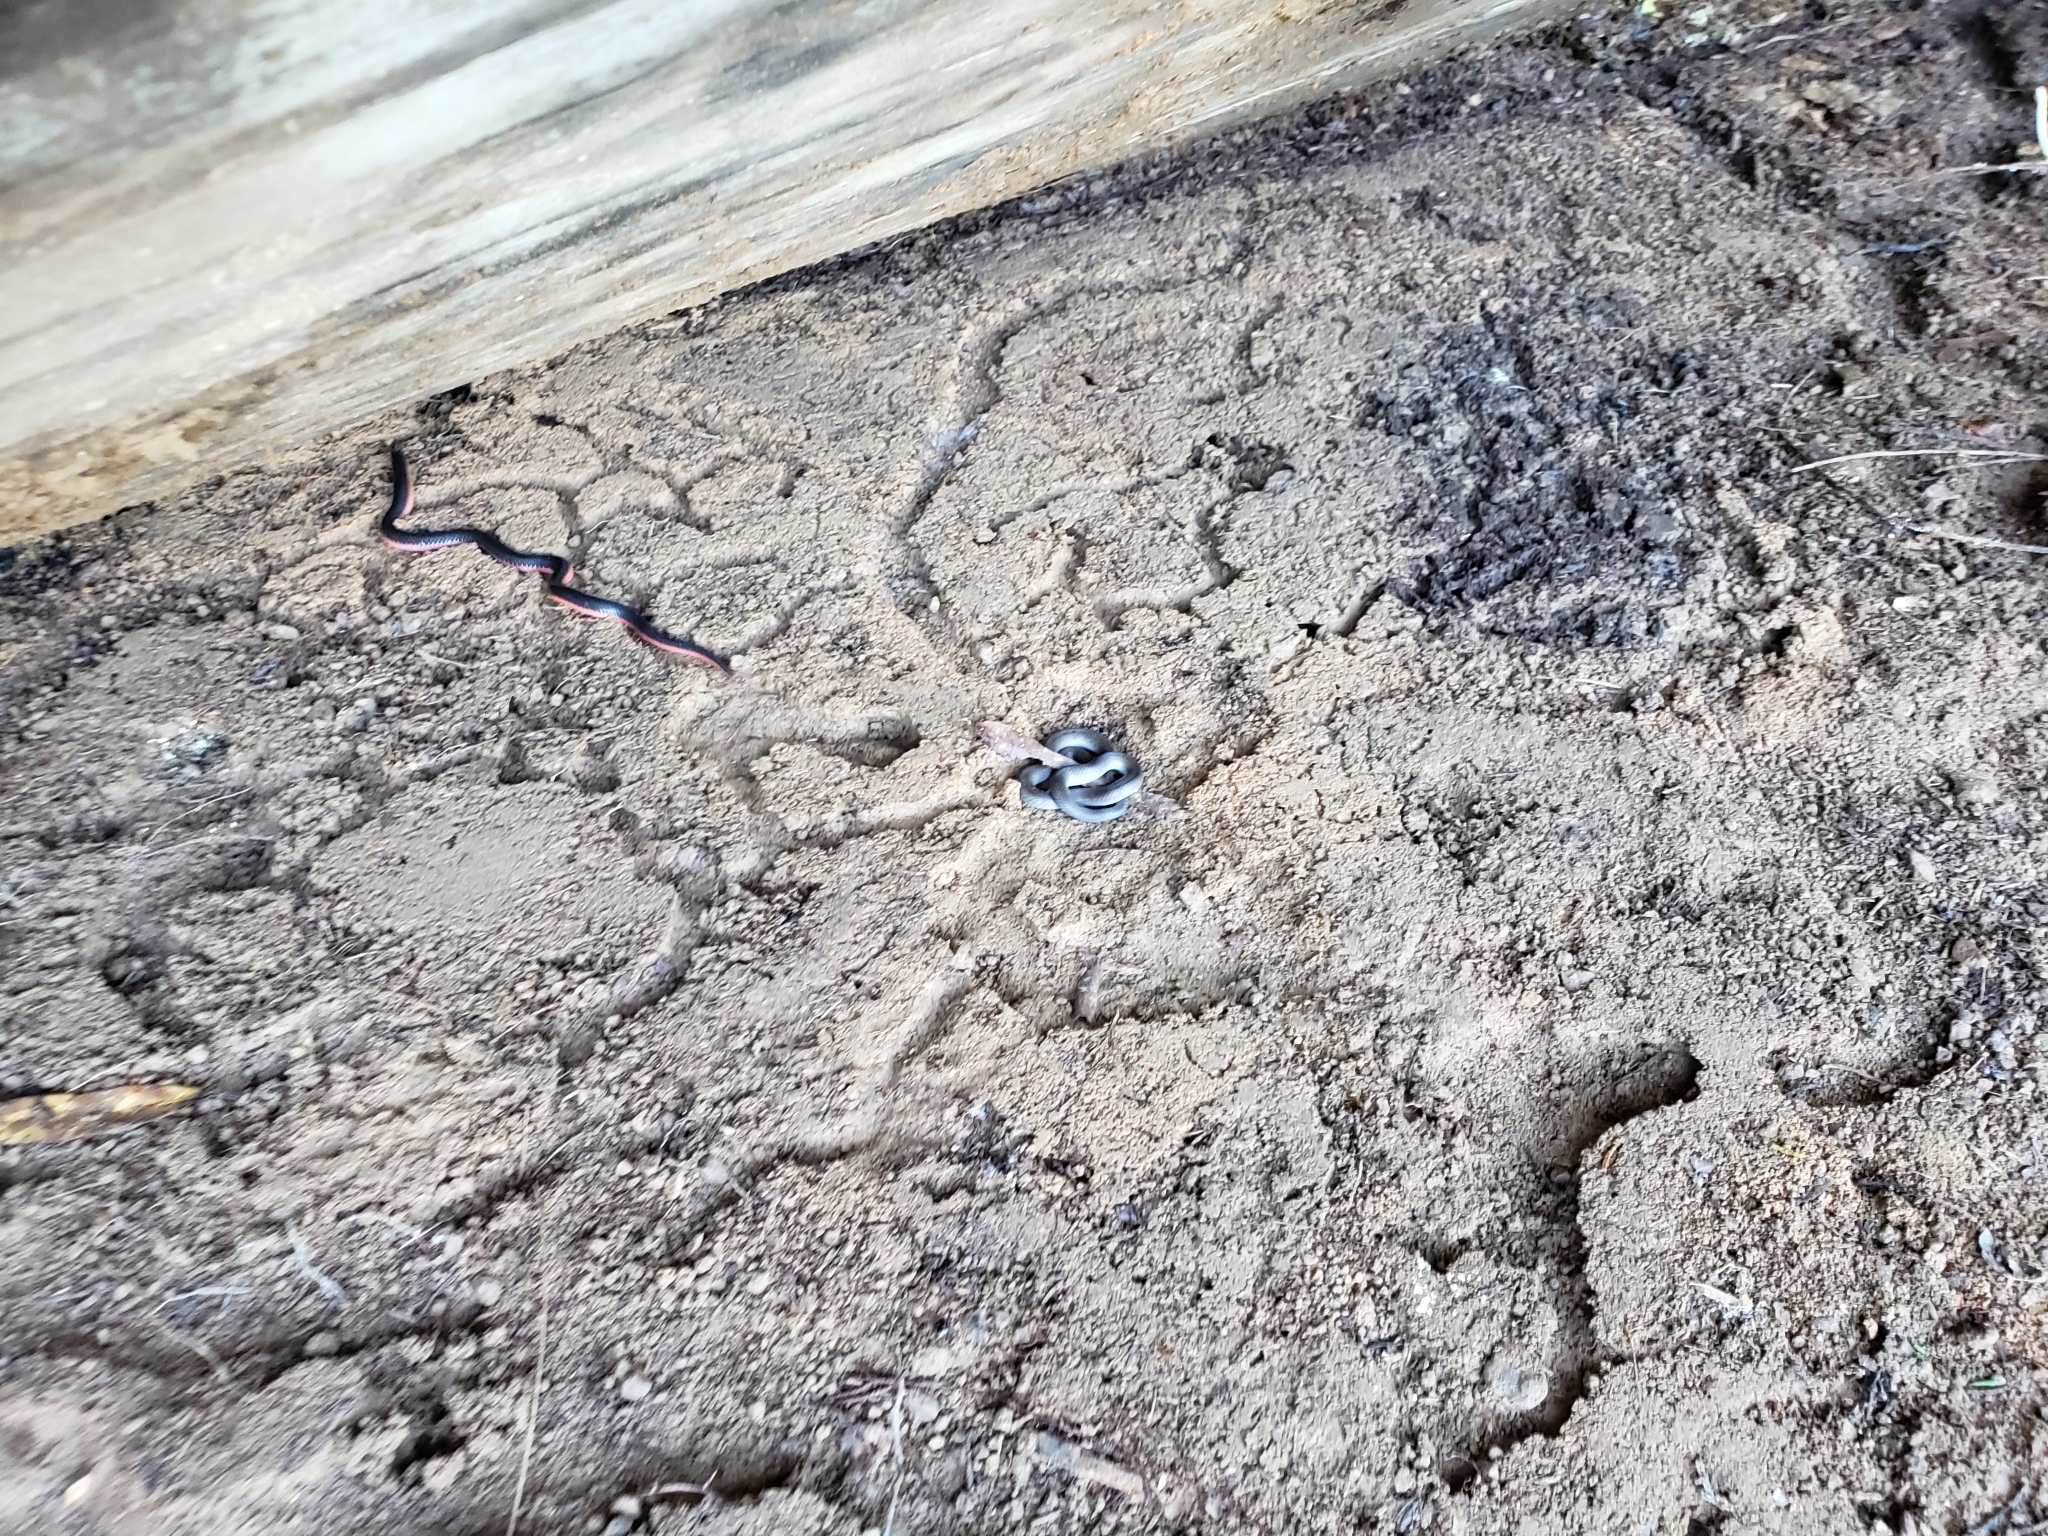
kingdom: Animalia
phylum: Chordata
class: Squamata
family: Colubridae
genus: Carphophis
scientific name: Carphophis vermis
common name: Western worm snake
